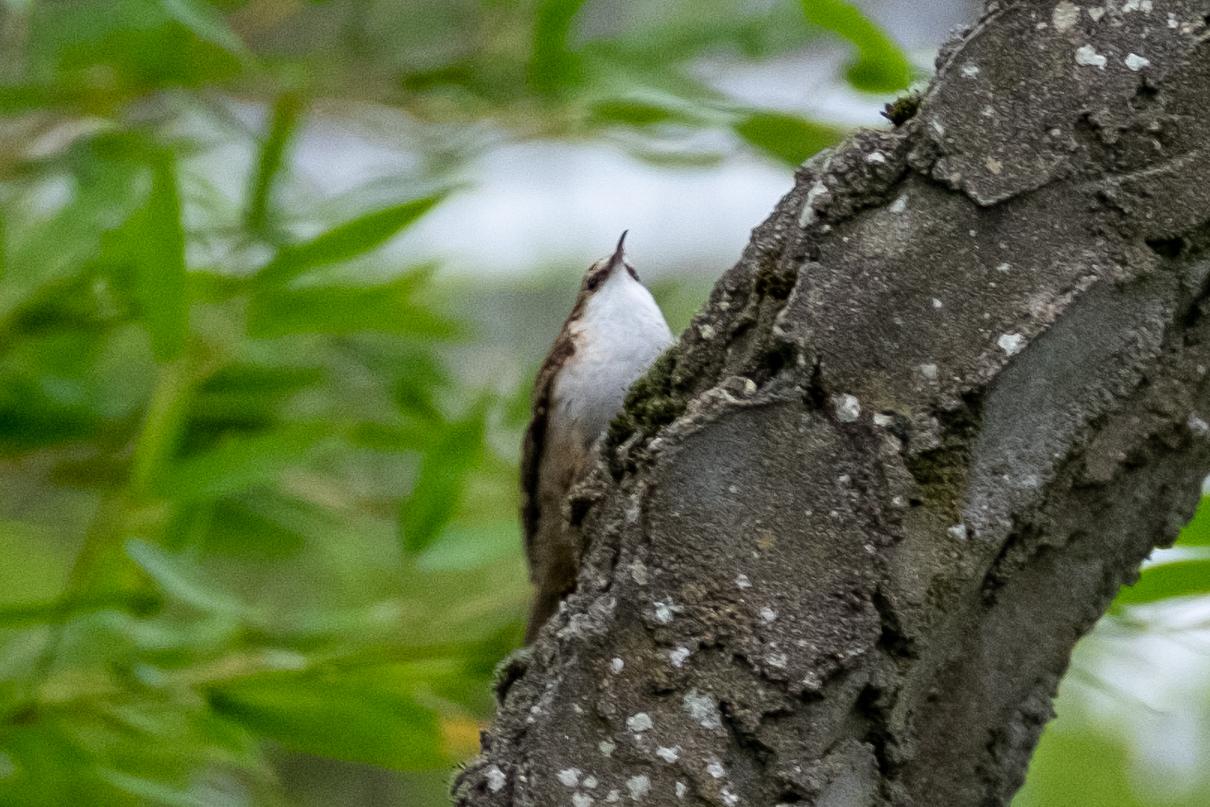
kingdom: Animalia
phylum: Chordata
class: Aves
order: Passeriformes
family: Certhiidae
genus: Certhia
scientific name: Certhia familiaris
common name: Eurasian treecreeper
